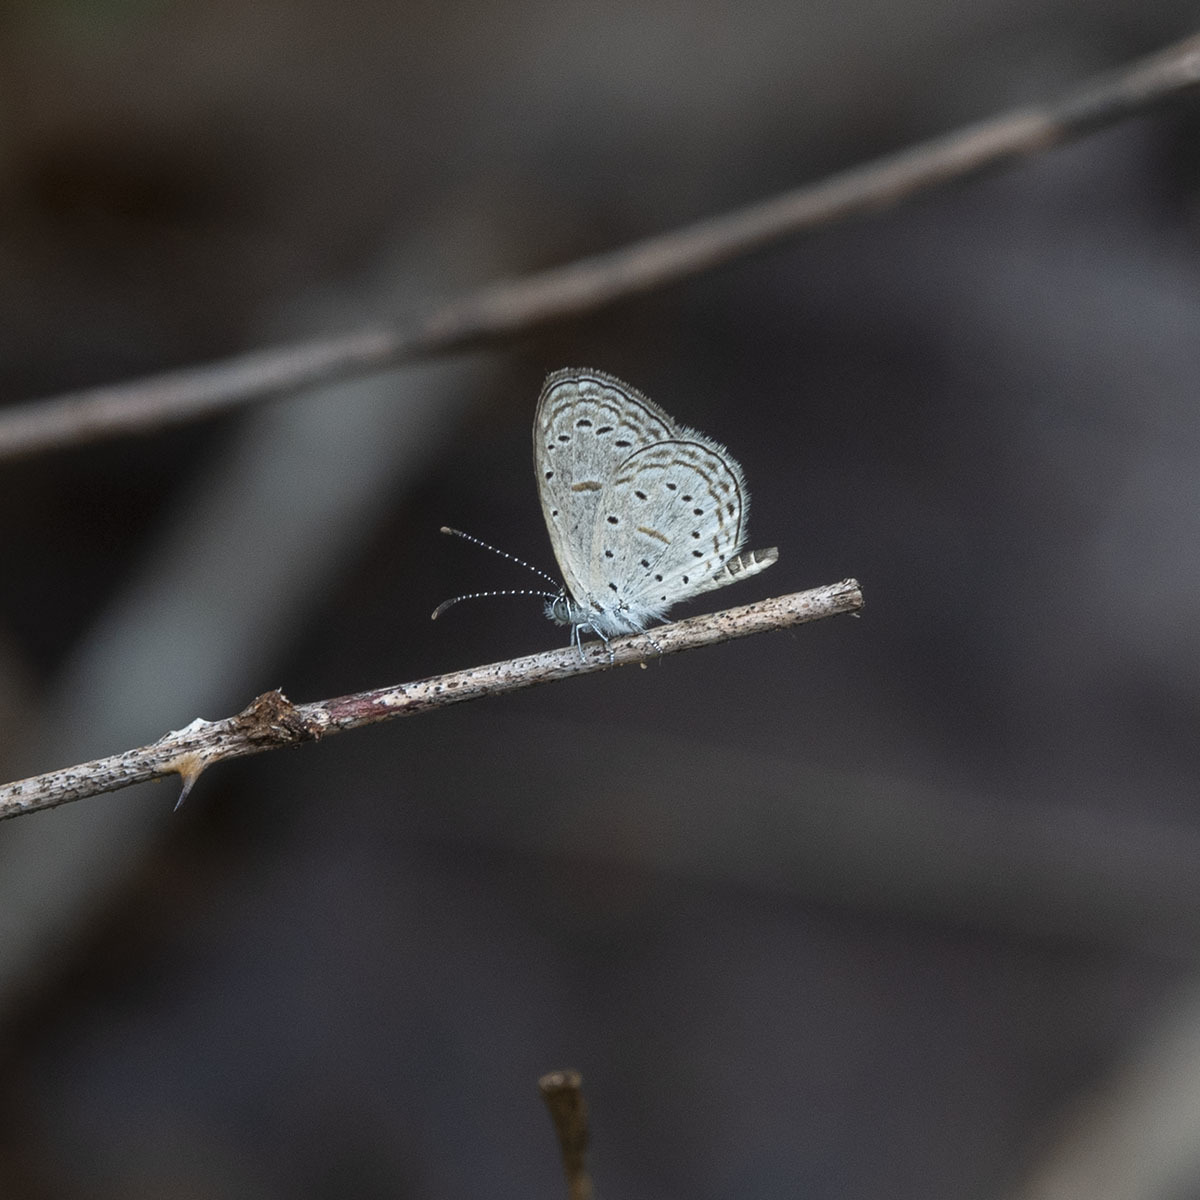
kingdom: Animalia
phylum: Arthropoda
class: Insecta
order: Lepidoptera
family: Lycaenidae
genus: Zizula
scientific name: Zizula hylax
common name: Gaika blue
